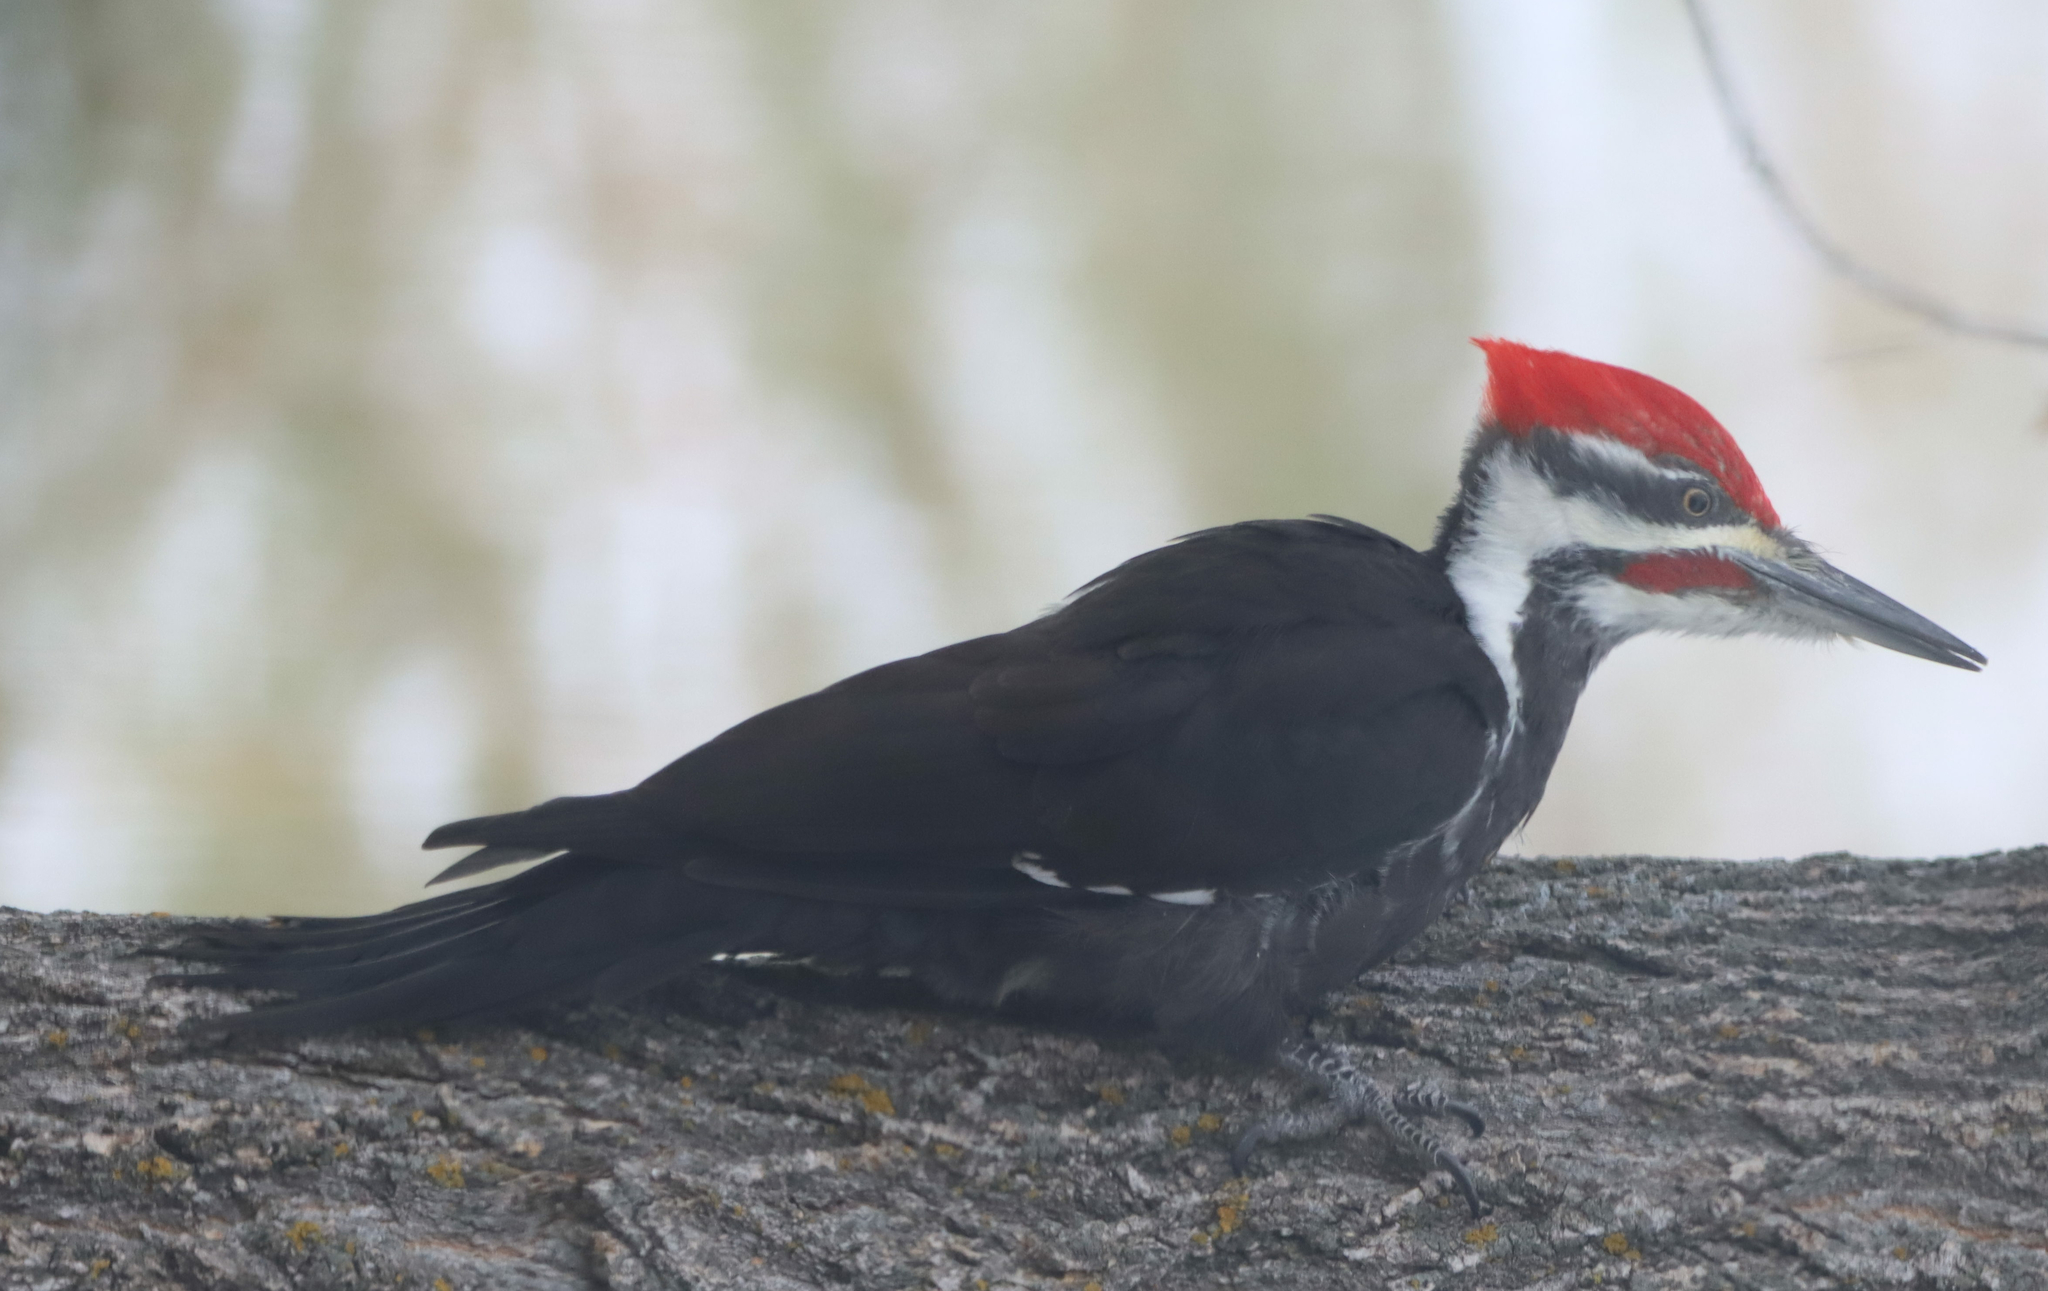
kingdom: Animalia
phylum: Chordata
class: Aves
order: Piciformes
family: Picidae
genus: Dryocopus
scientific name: Dryocopus pileatus
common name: Pileated woodpecker
